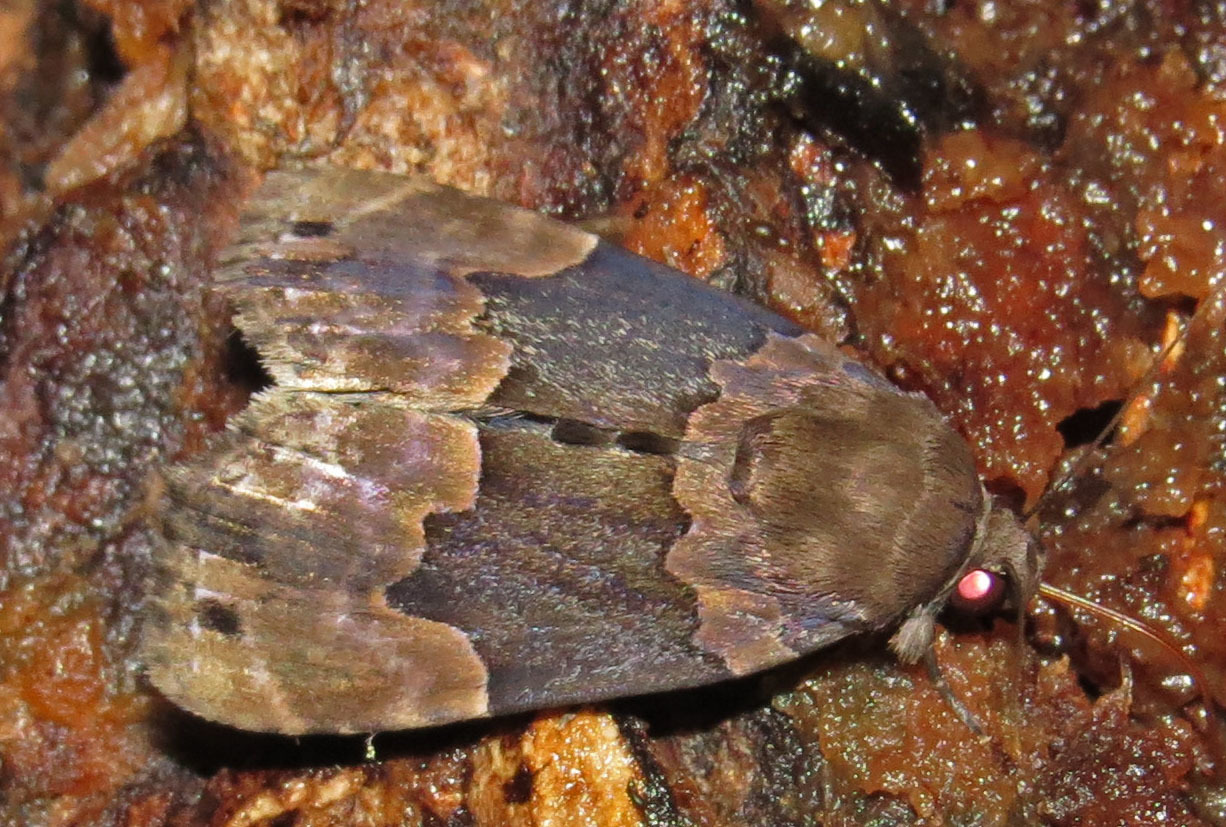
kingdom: Animalia
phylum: Arthropoda
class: Insecta
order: Lepidoptera
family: Erebidae
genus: Dinumma
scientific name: Dinumma deponens
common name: Purplish moth
